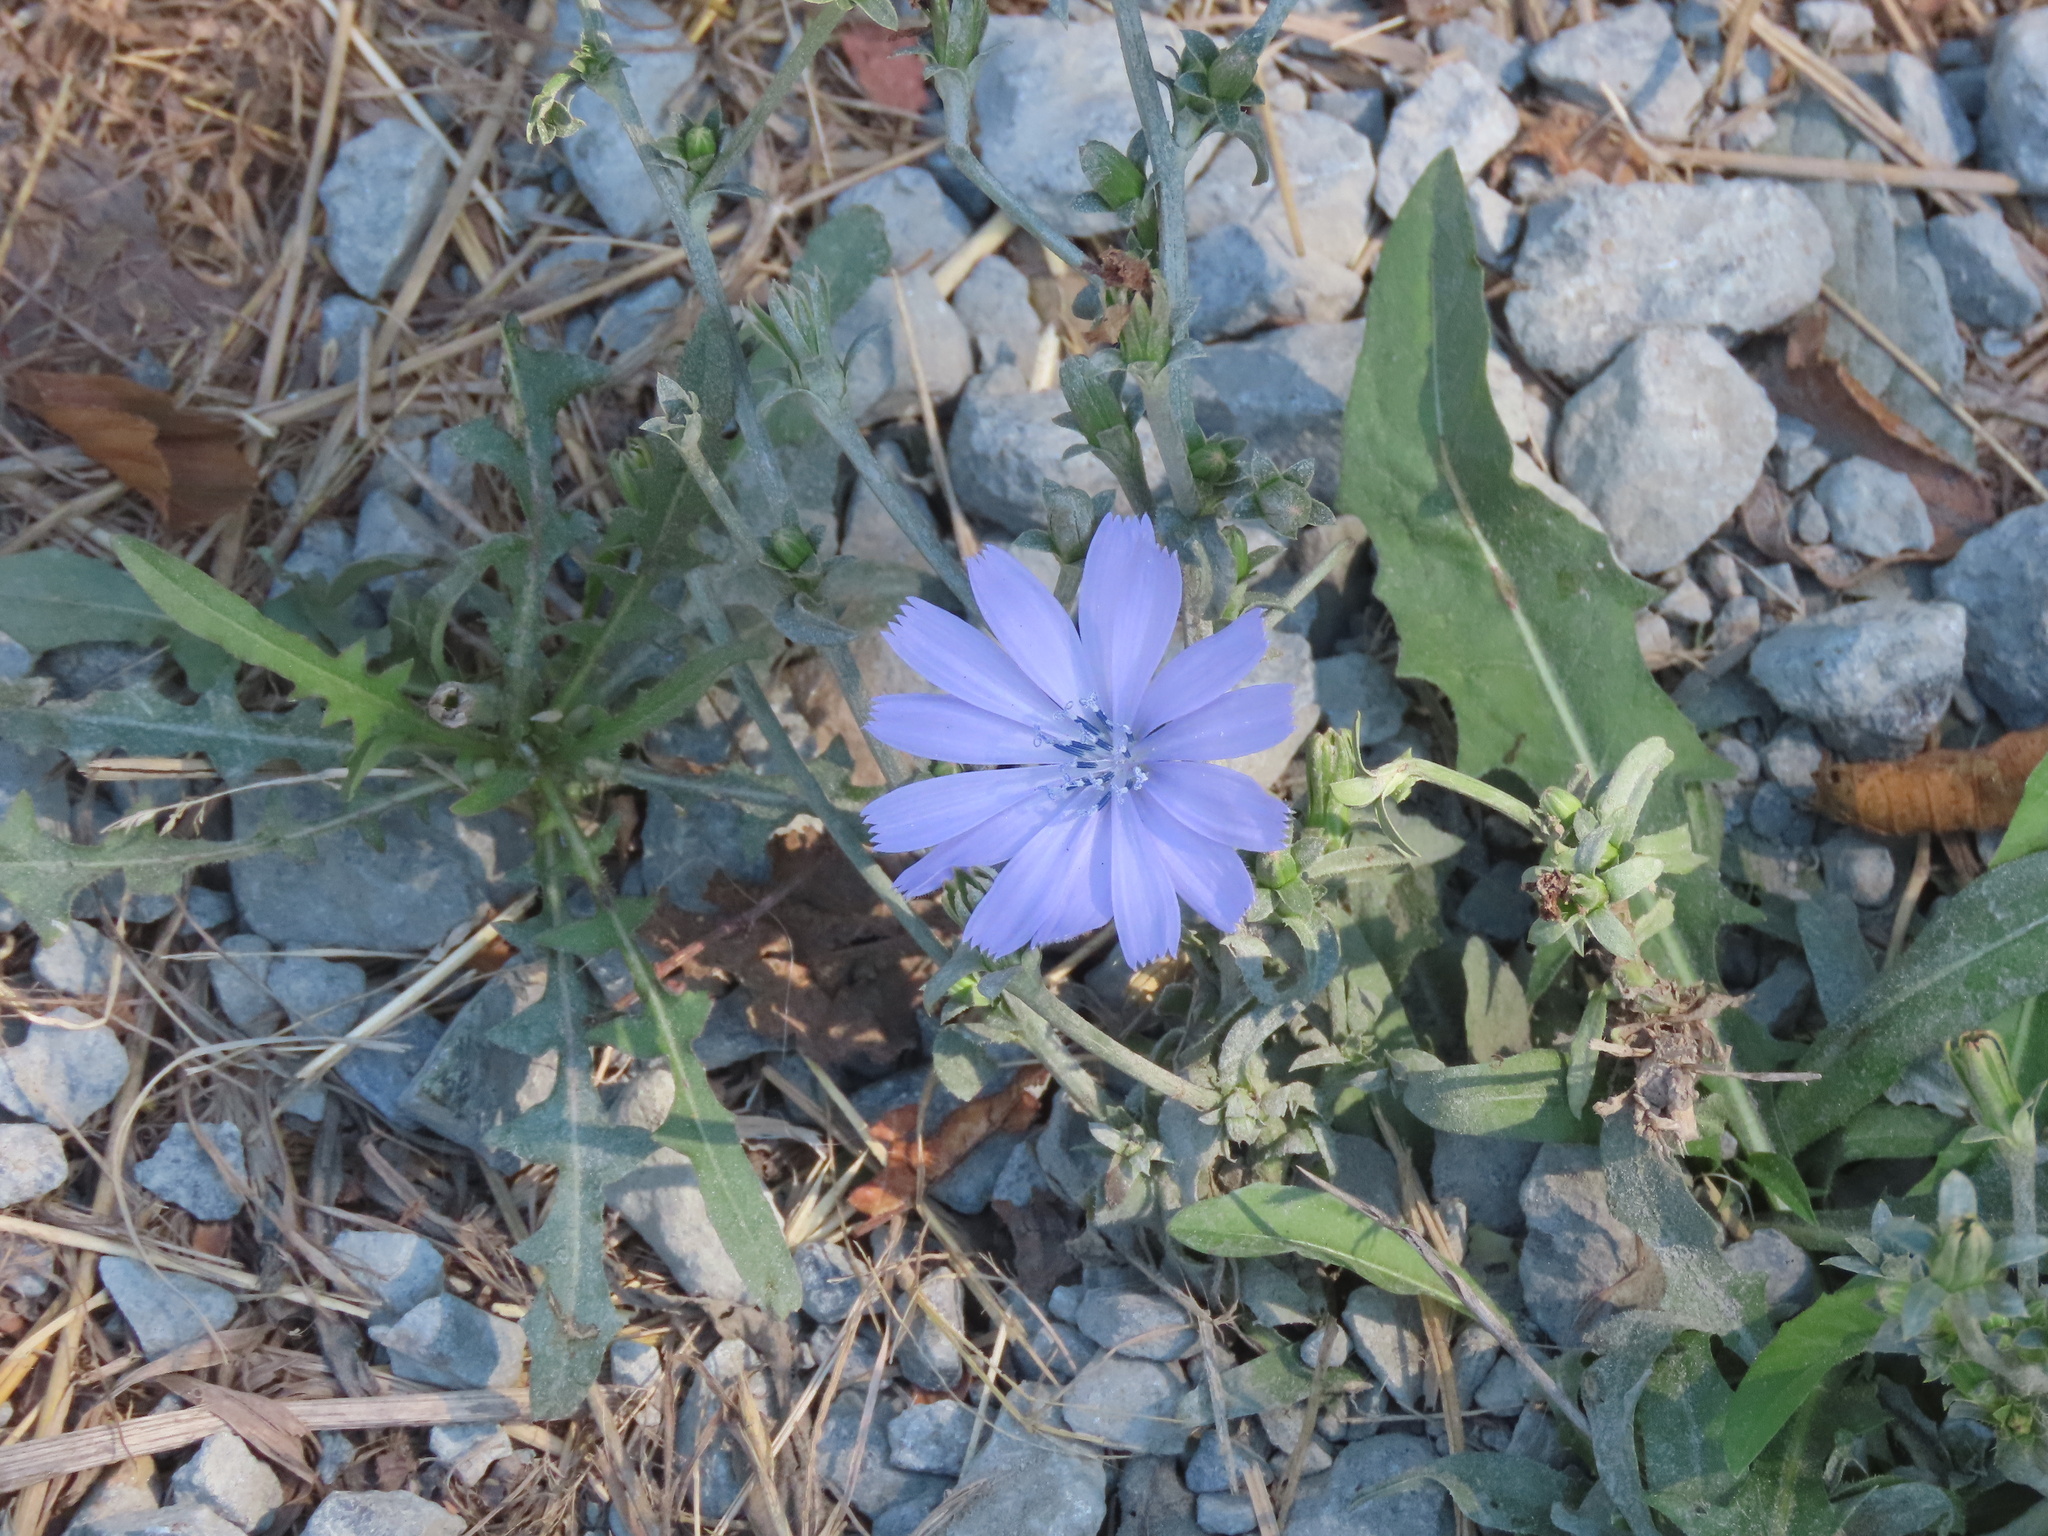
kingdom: Plantae
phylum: Tracheophyta
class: Magnoliopsida
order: Asterales
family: Asteraceae
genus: Cichorium
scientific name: Cichorium intybus
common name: Chicory
